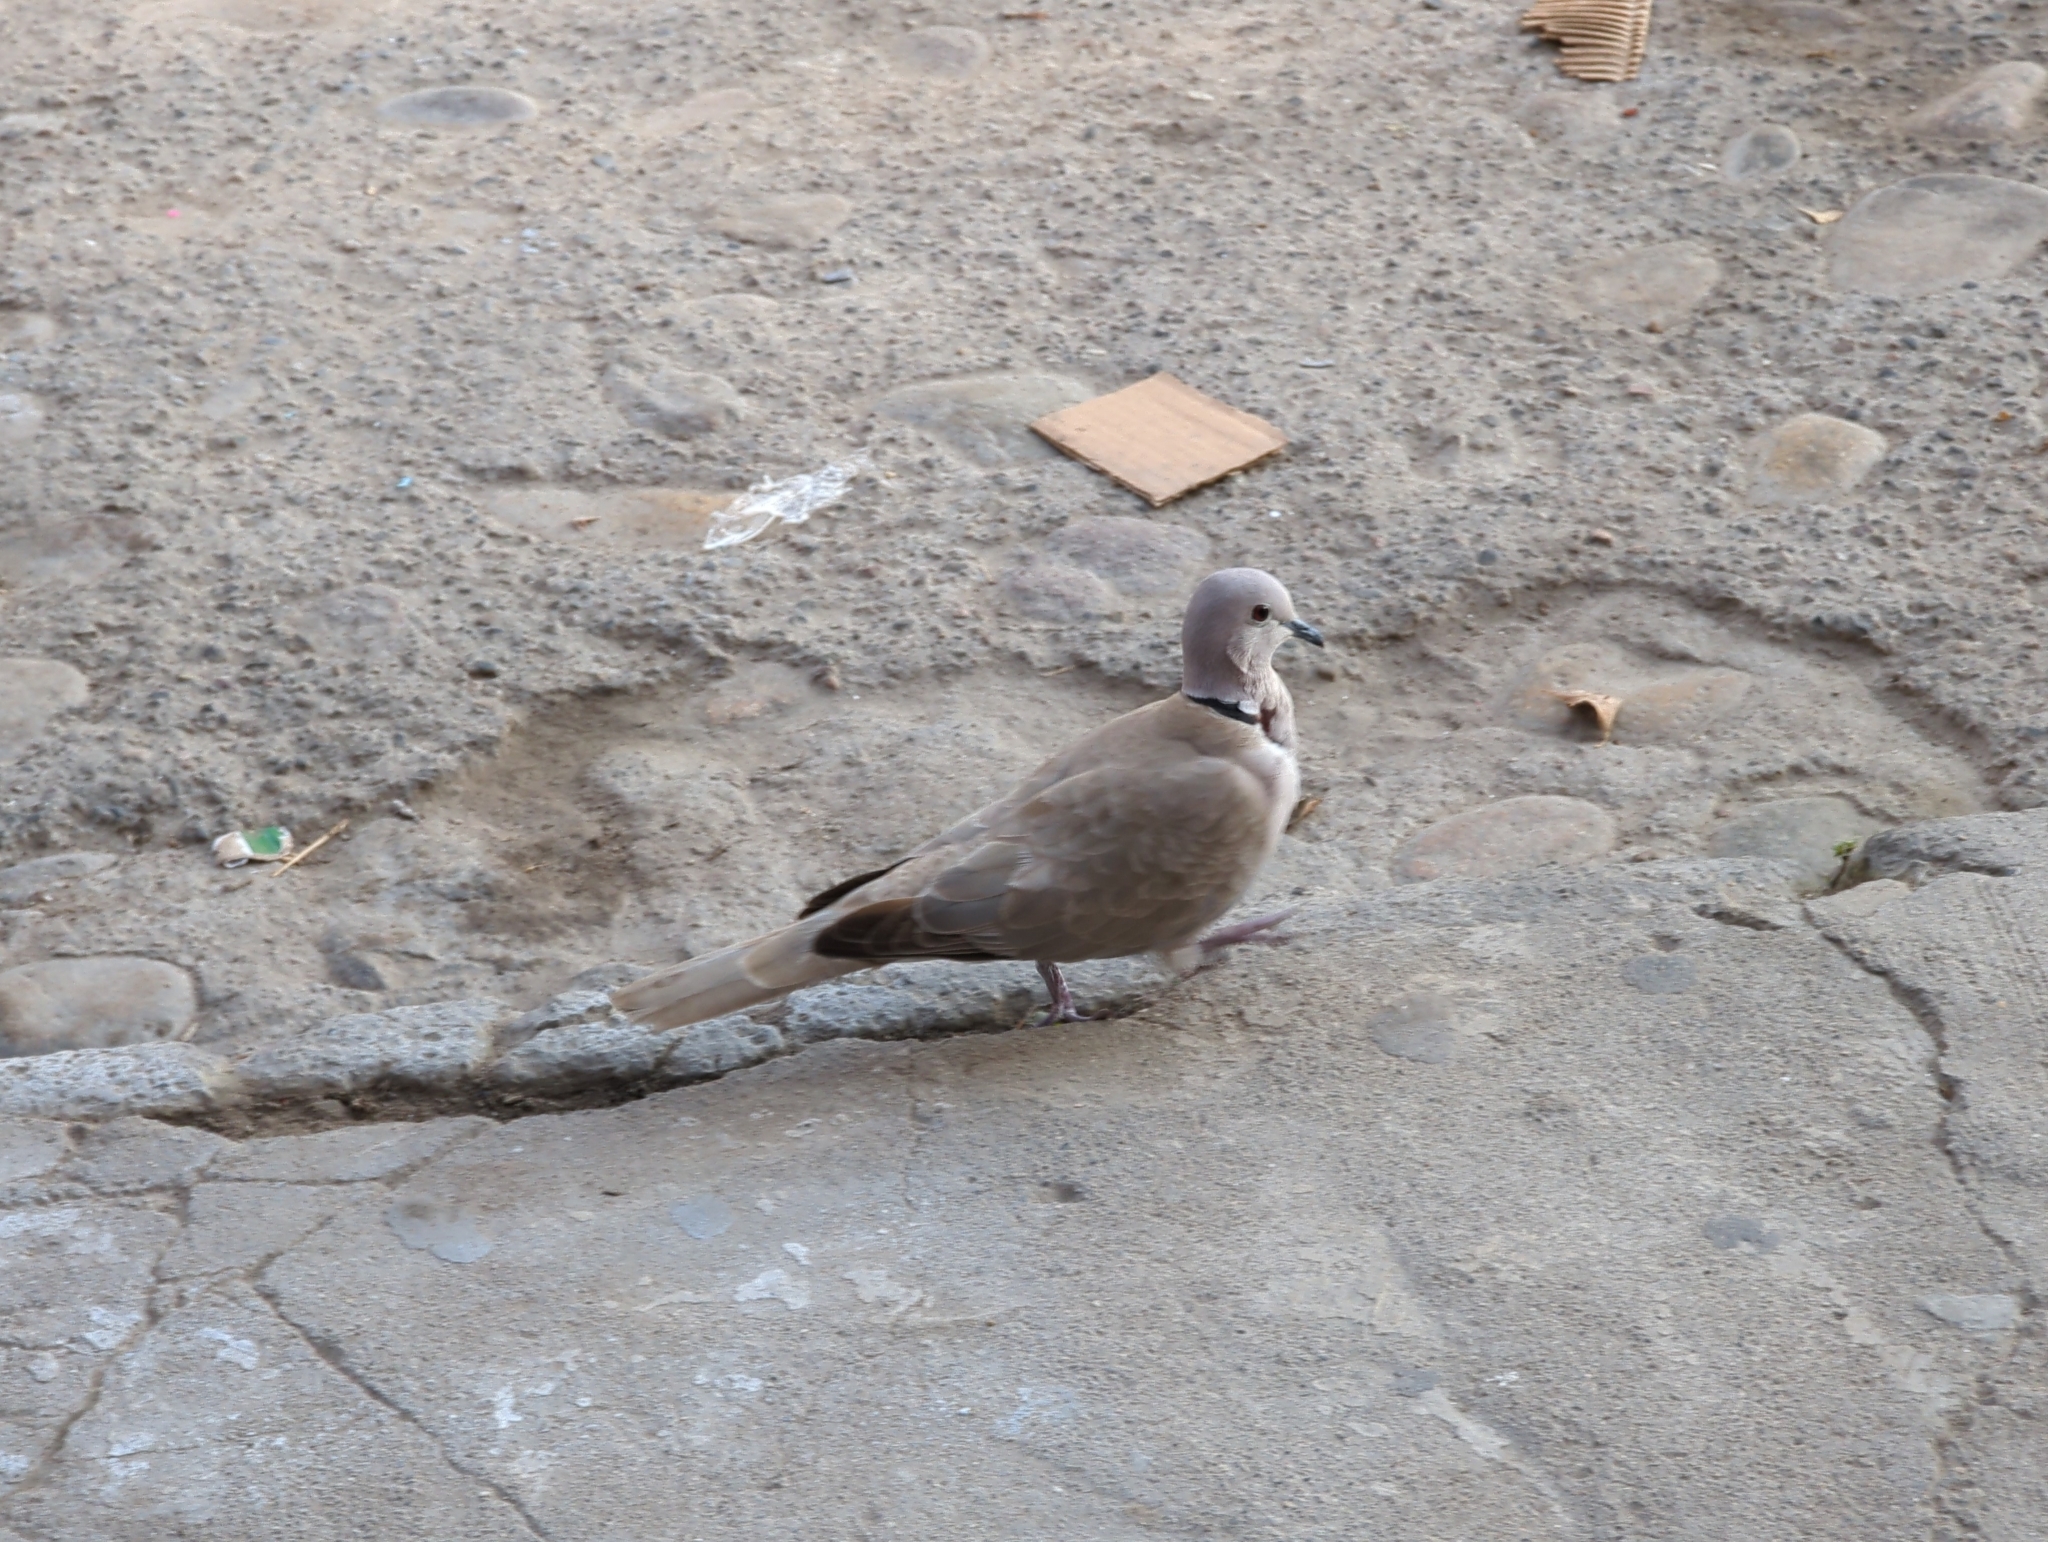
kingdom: Animalia
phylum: Chordata
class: Aves
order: Columbiformes
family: Columbidae
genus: Streptopelia
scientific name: Streptopelia decaocto
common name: Eurasian collared dove
